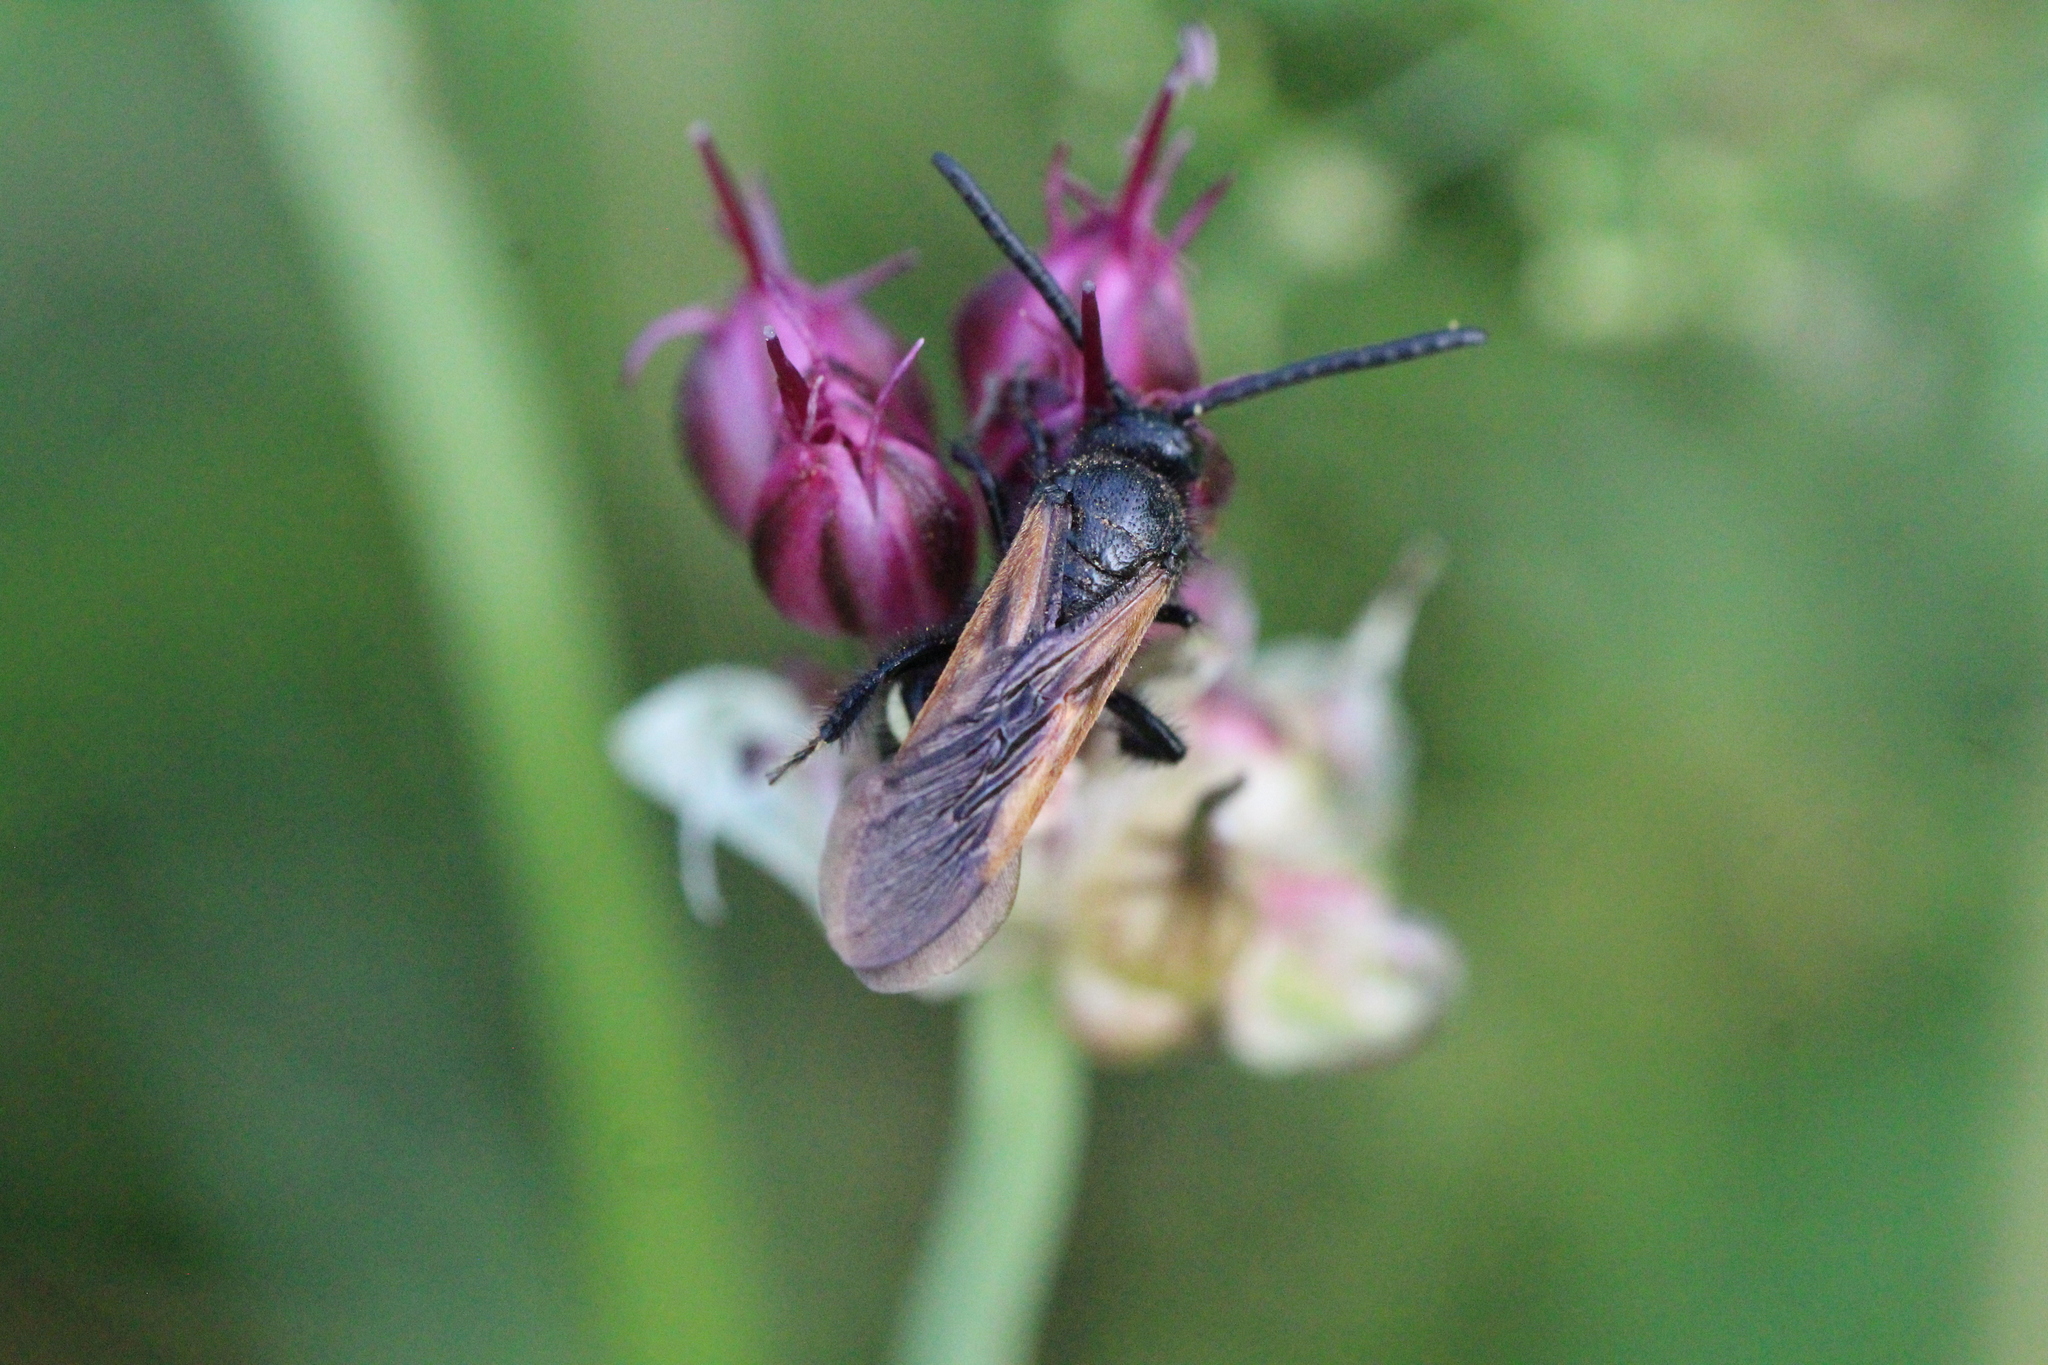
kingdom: Animalia
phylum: Arthropoda
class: Insecta
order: Hymenoptera
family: Vespidae
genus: Vespa
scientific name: Vespa sexmaculata
